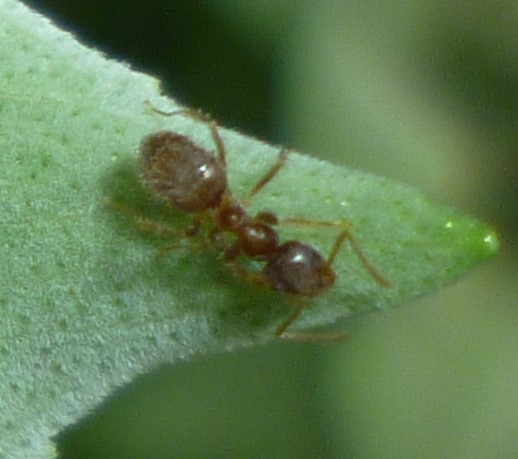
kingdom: Animalia
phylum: Arthropoda
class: Insecta
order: Hymenoptera
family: Formicidae
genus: Lasius
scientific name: Lasius
